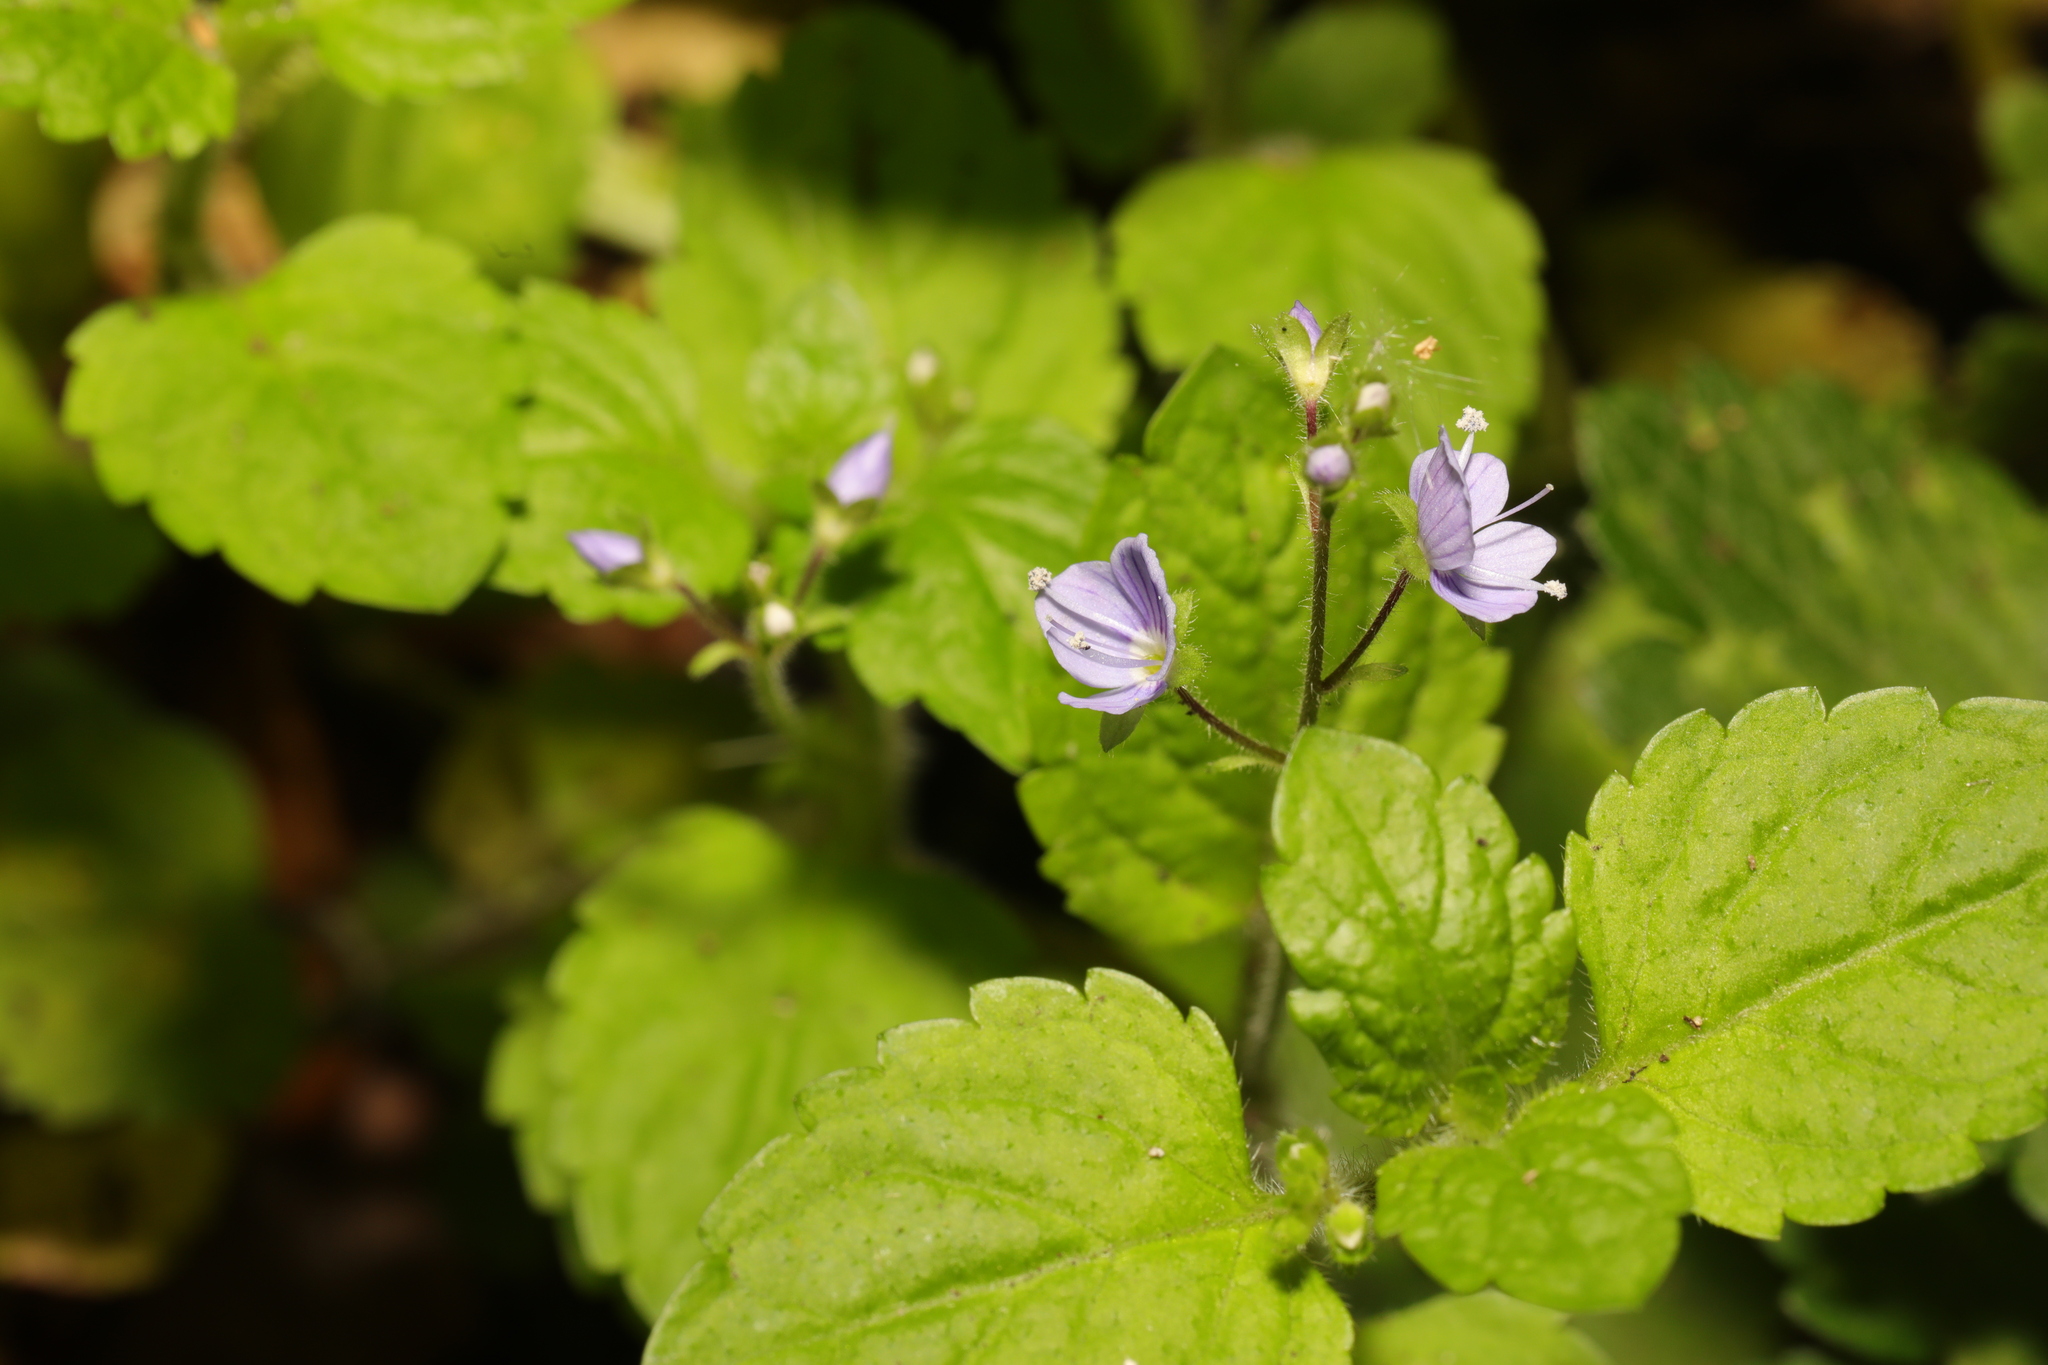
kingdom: Plantae
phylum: Tracheophyta
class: Magnoliopsida
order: Lamiales
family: Plantaginaceae
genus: Veronica
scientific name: Veronica montana
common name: Wood speedwell
